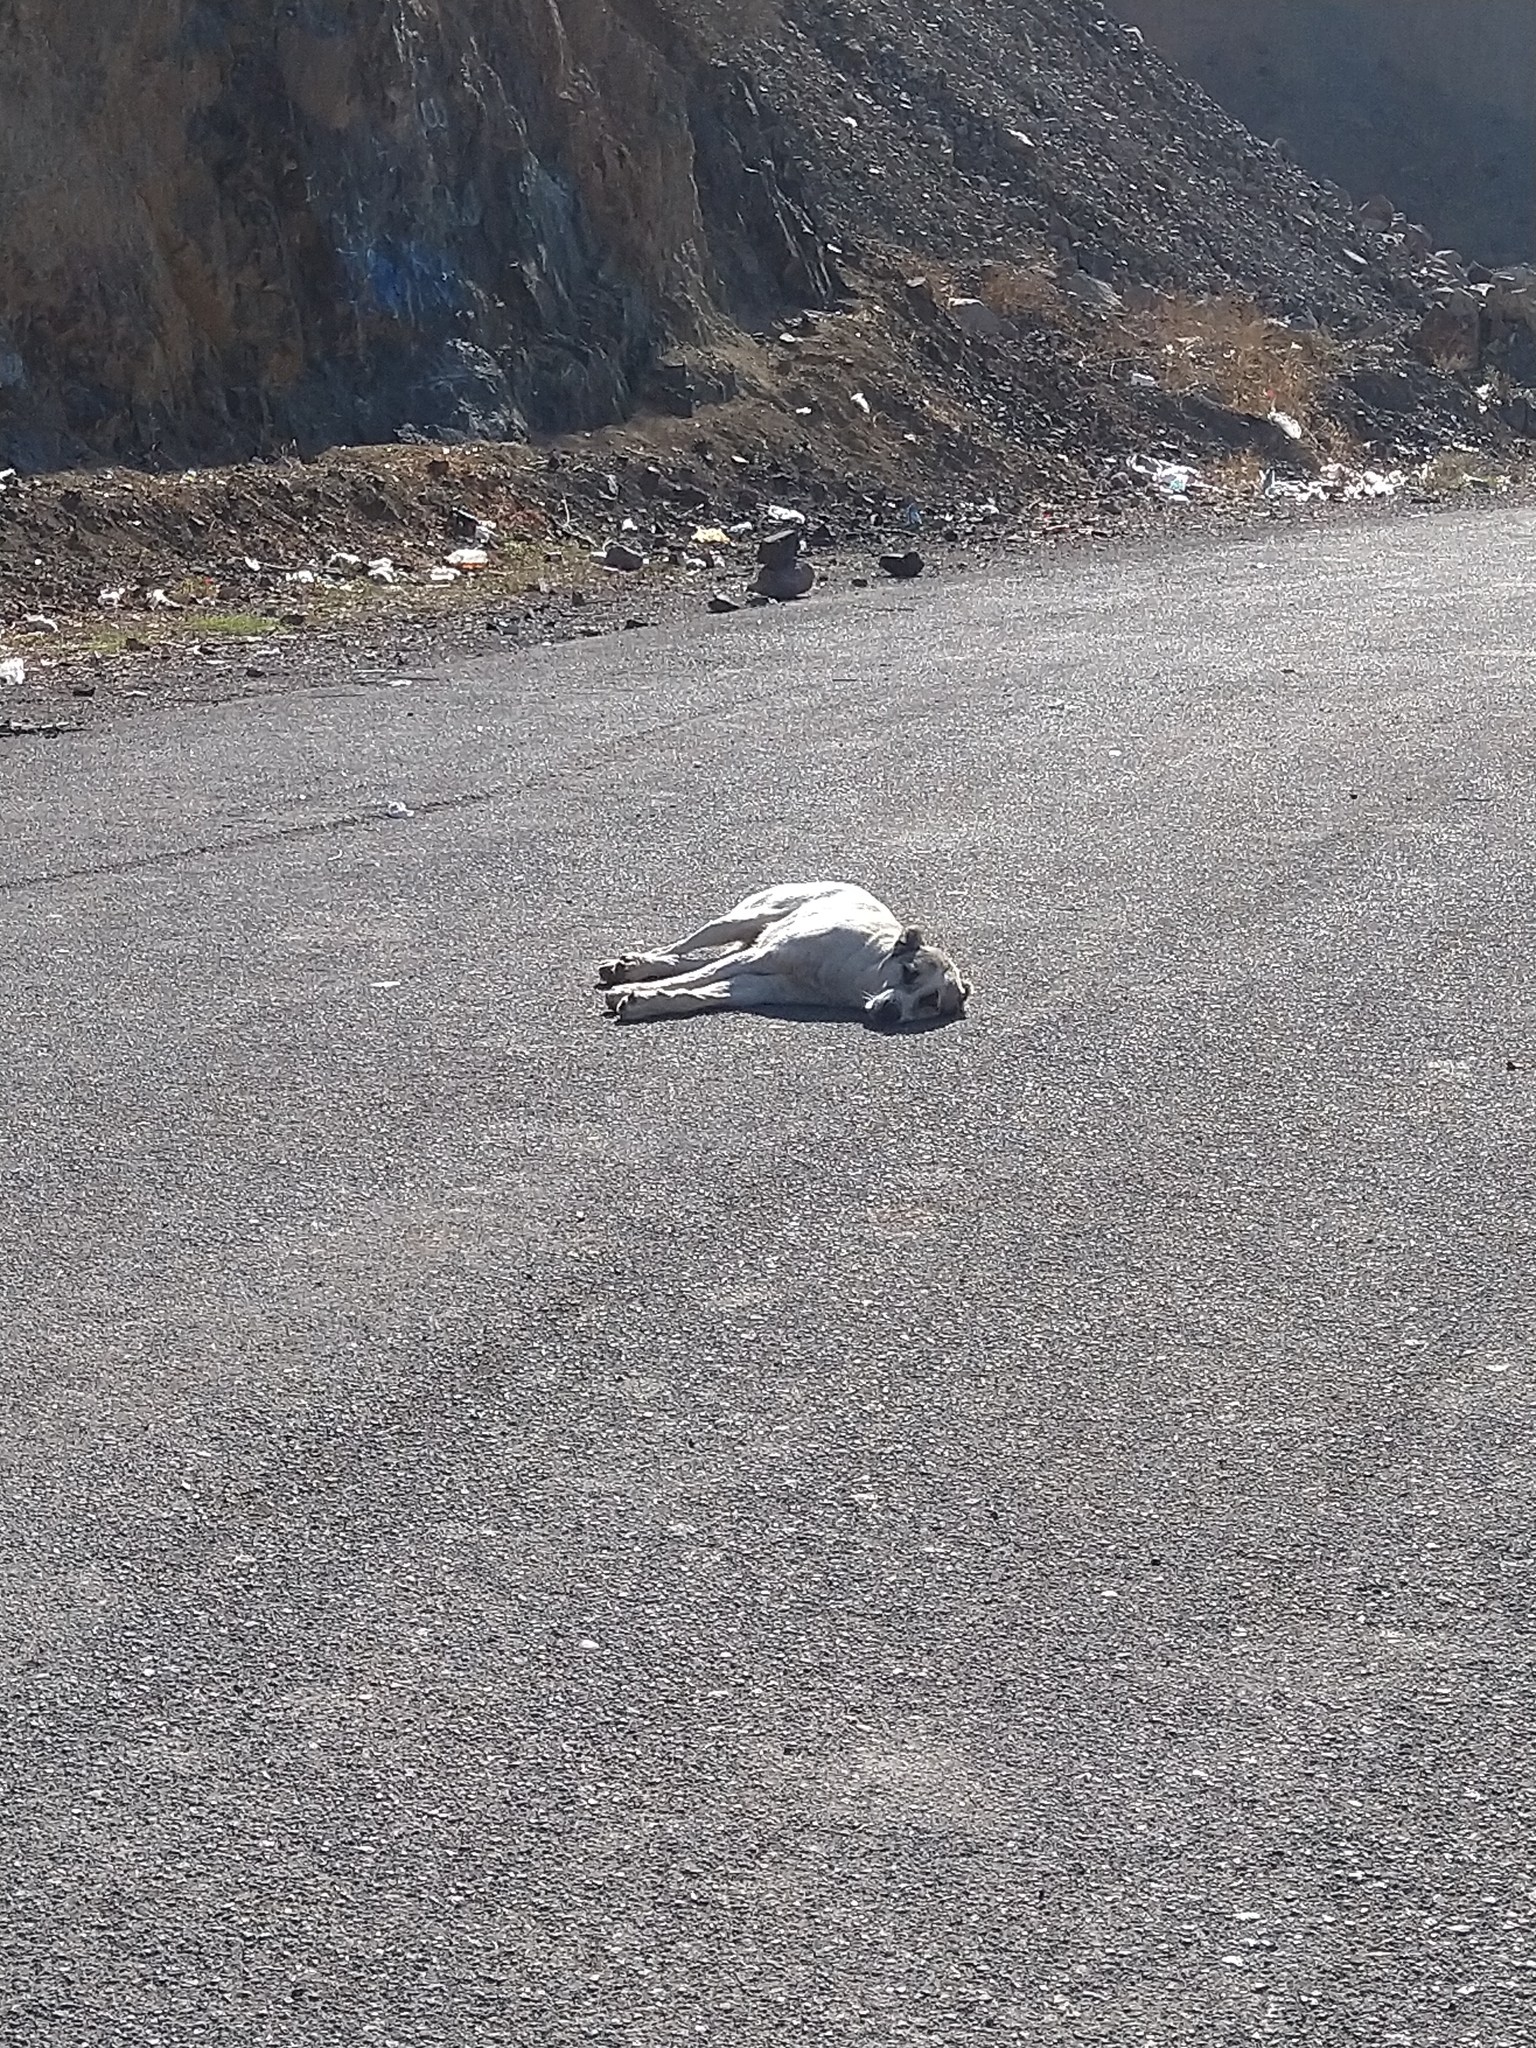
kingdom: Animalia
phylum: Chordata
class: Mammalia
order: Carnivora
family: Canidae
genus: Canis
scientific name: Canis lupus
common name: Gray wolf
